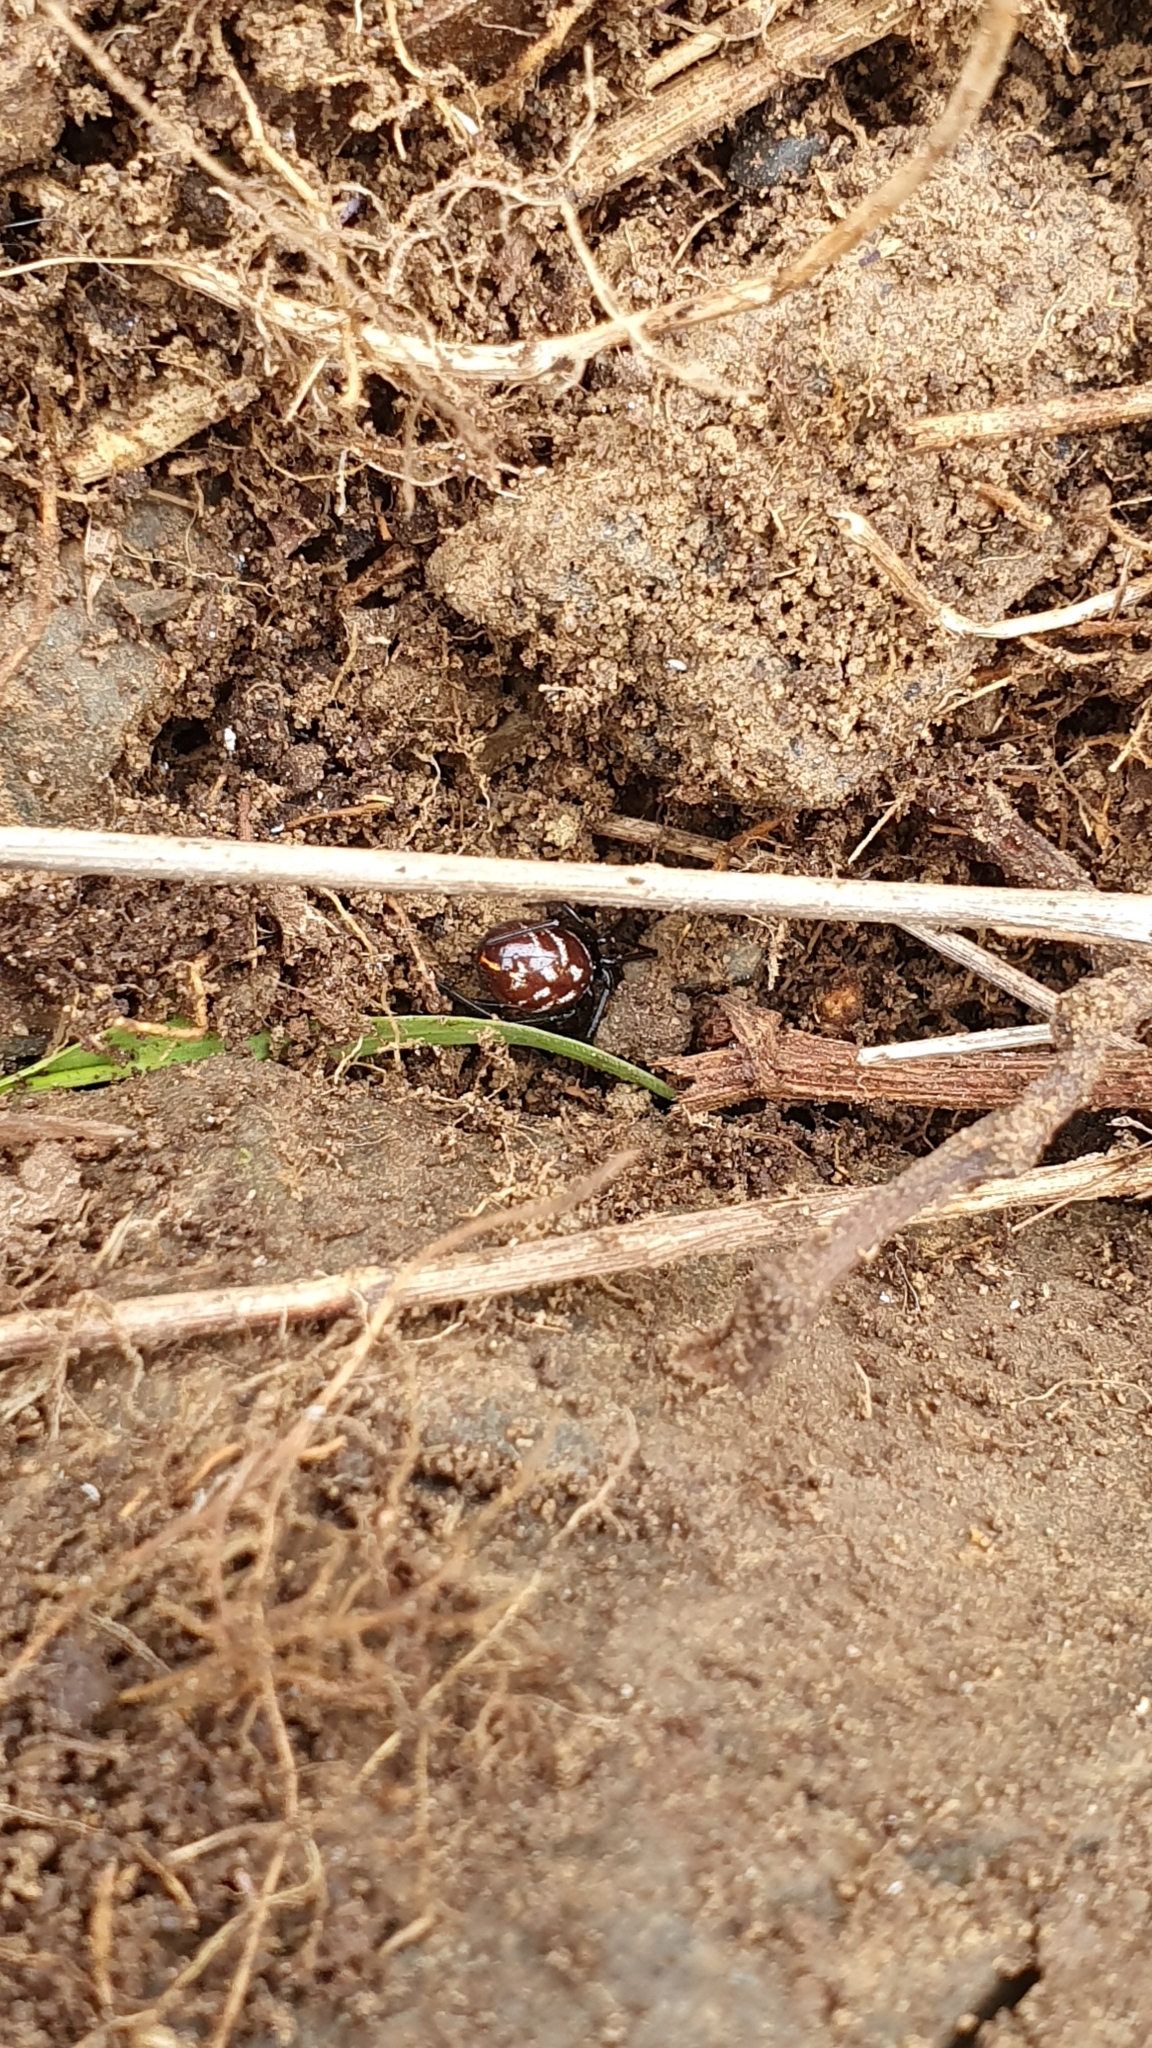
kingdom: Animalia
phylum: Arthropoda
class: Arachnida
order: Araneae
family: Theridiidae
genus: Steatoda
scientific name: Steatoda capensis
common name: Cobweb weaver
